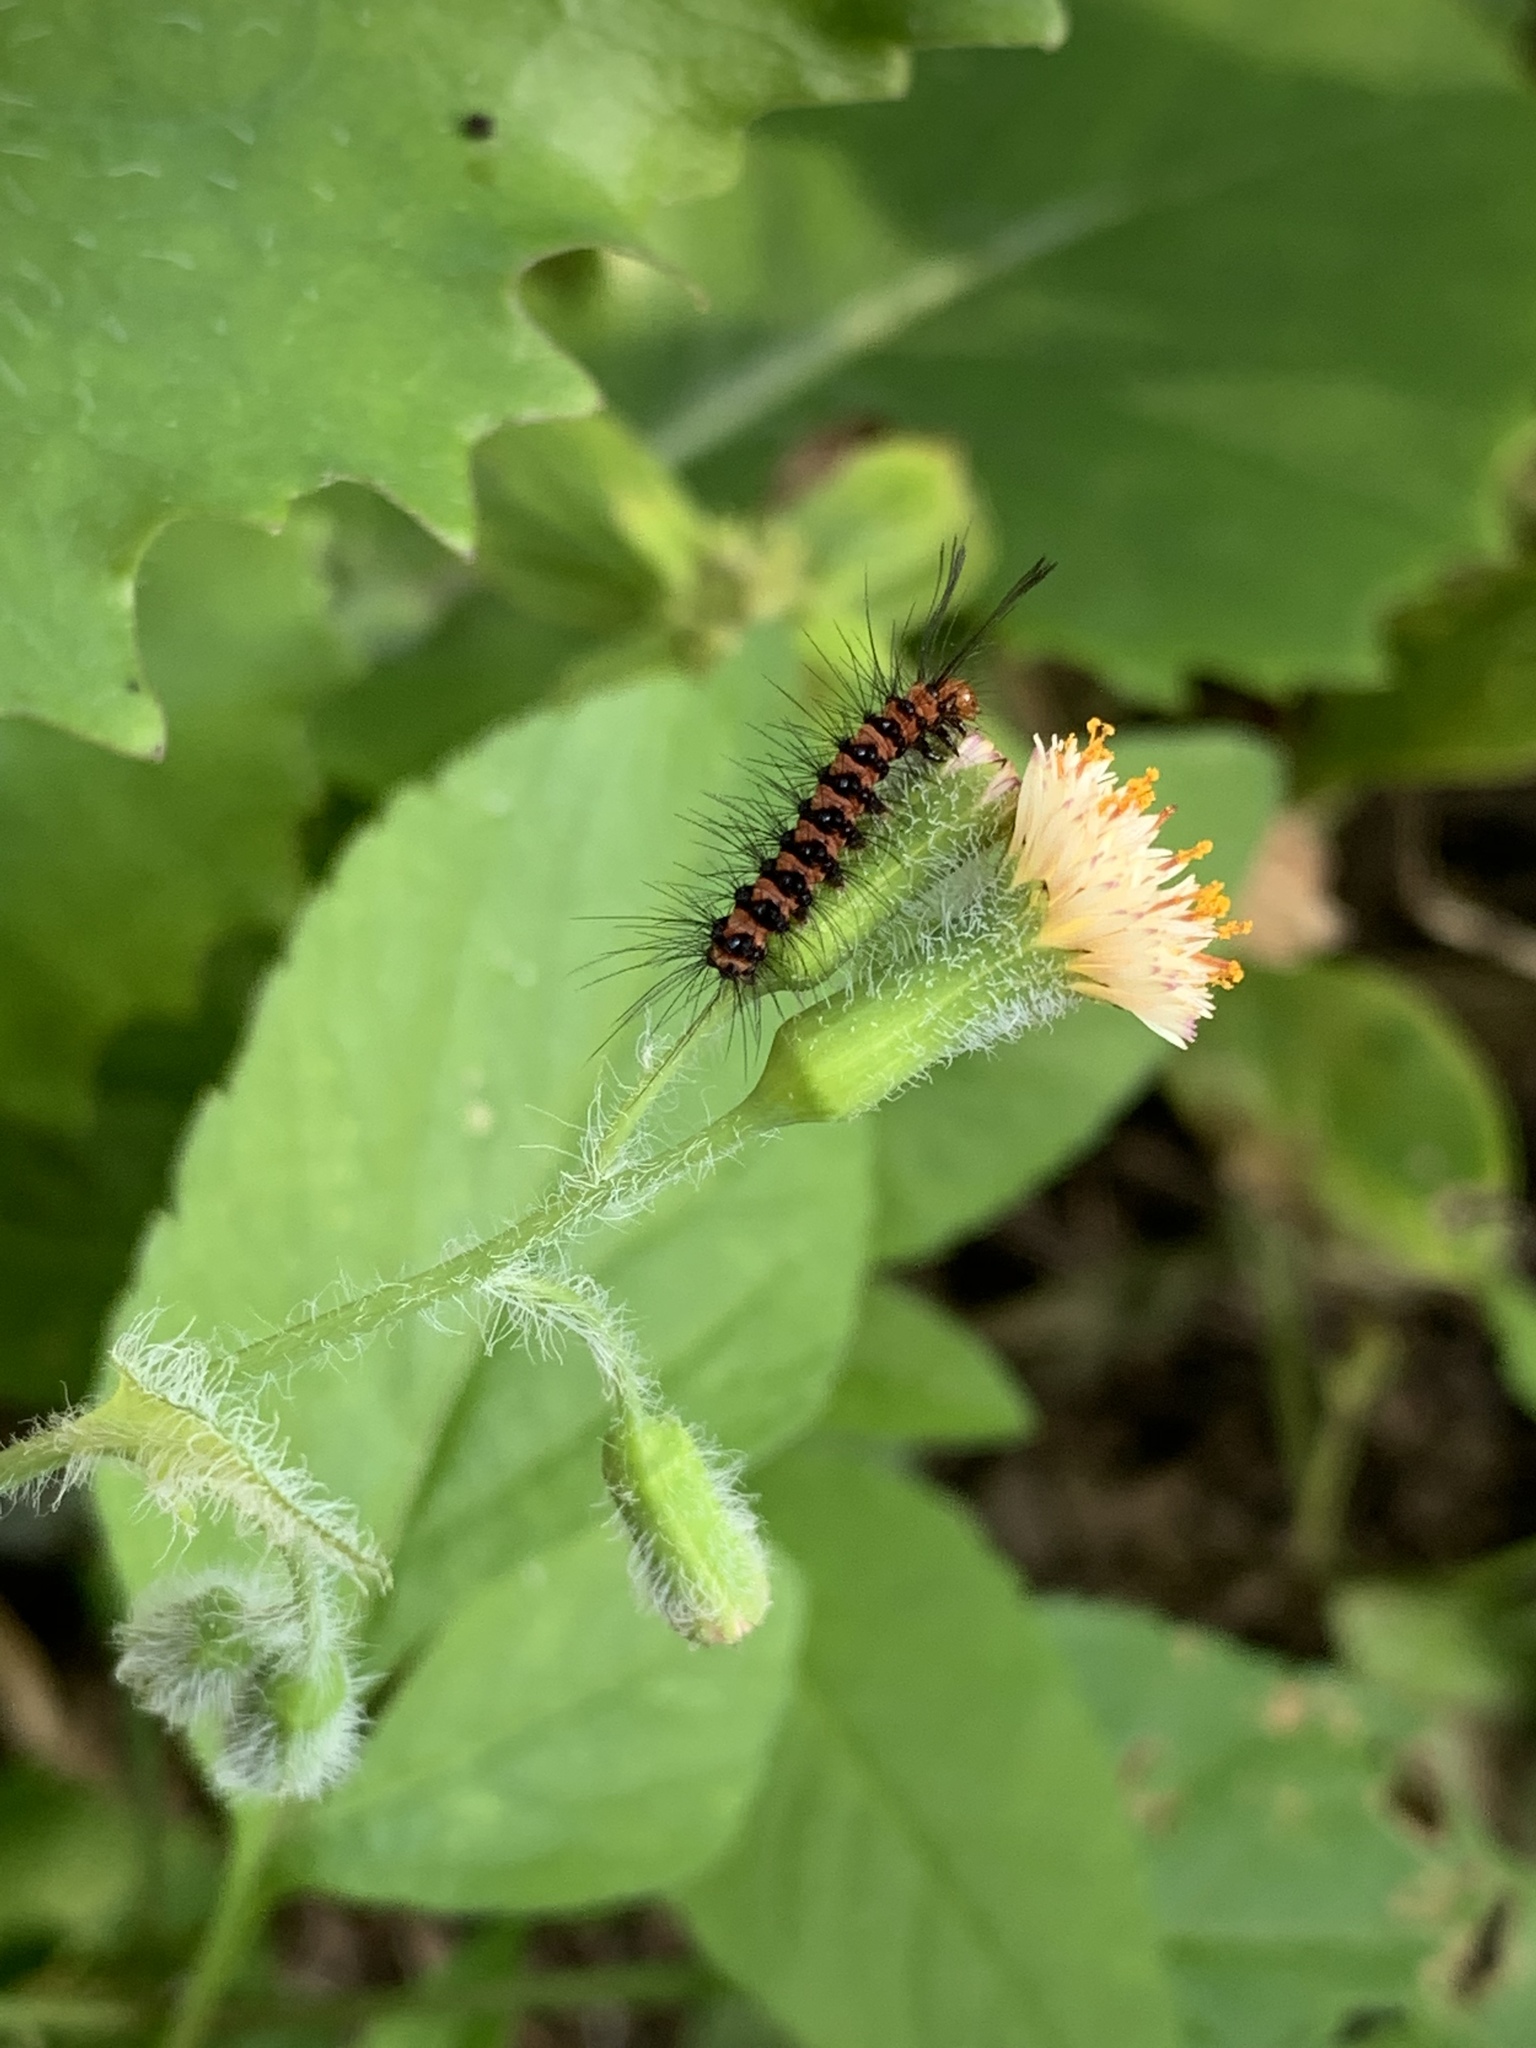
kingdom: Animalia
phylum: Arthropoda
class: Insecta
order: Lepidoptera
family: Erebidae
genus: Nyctemera
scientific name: Nyctemera lacticinia
